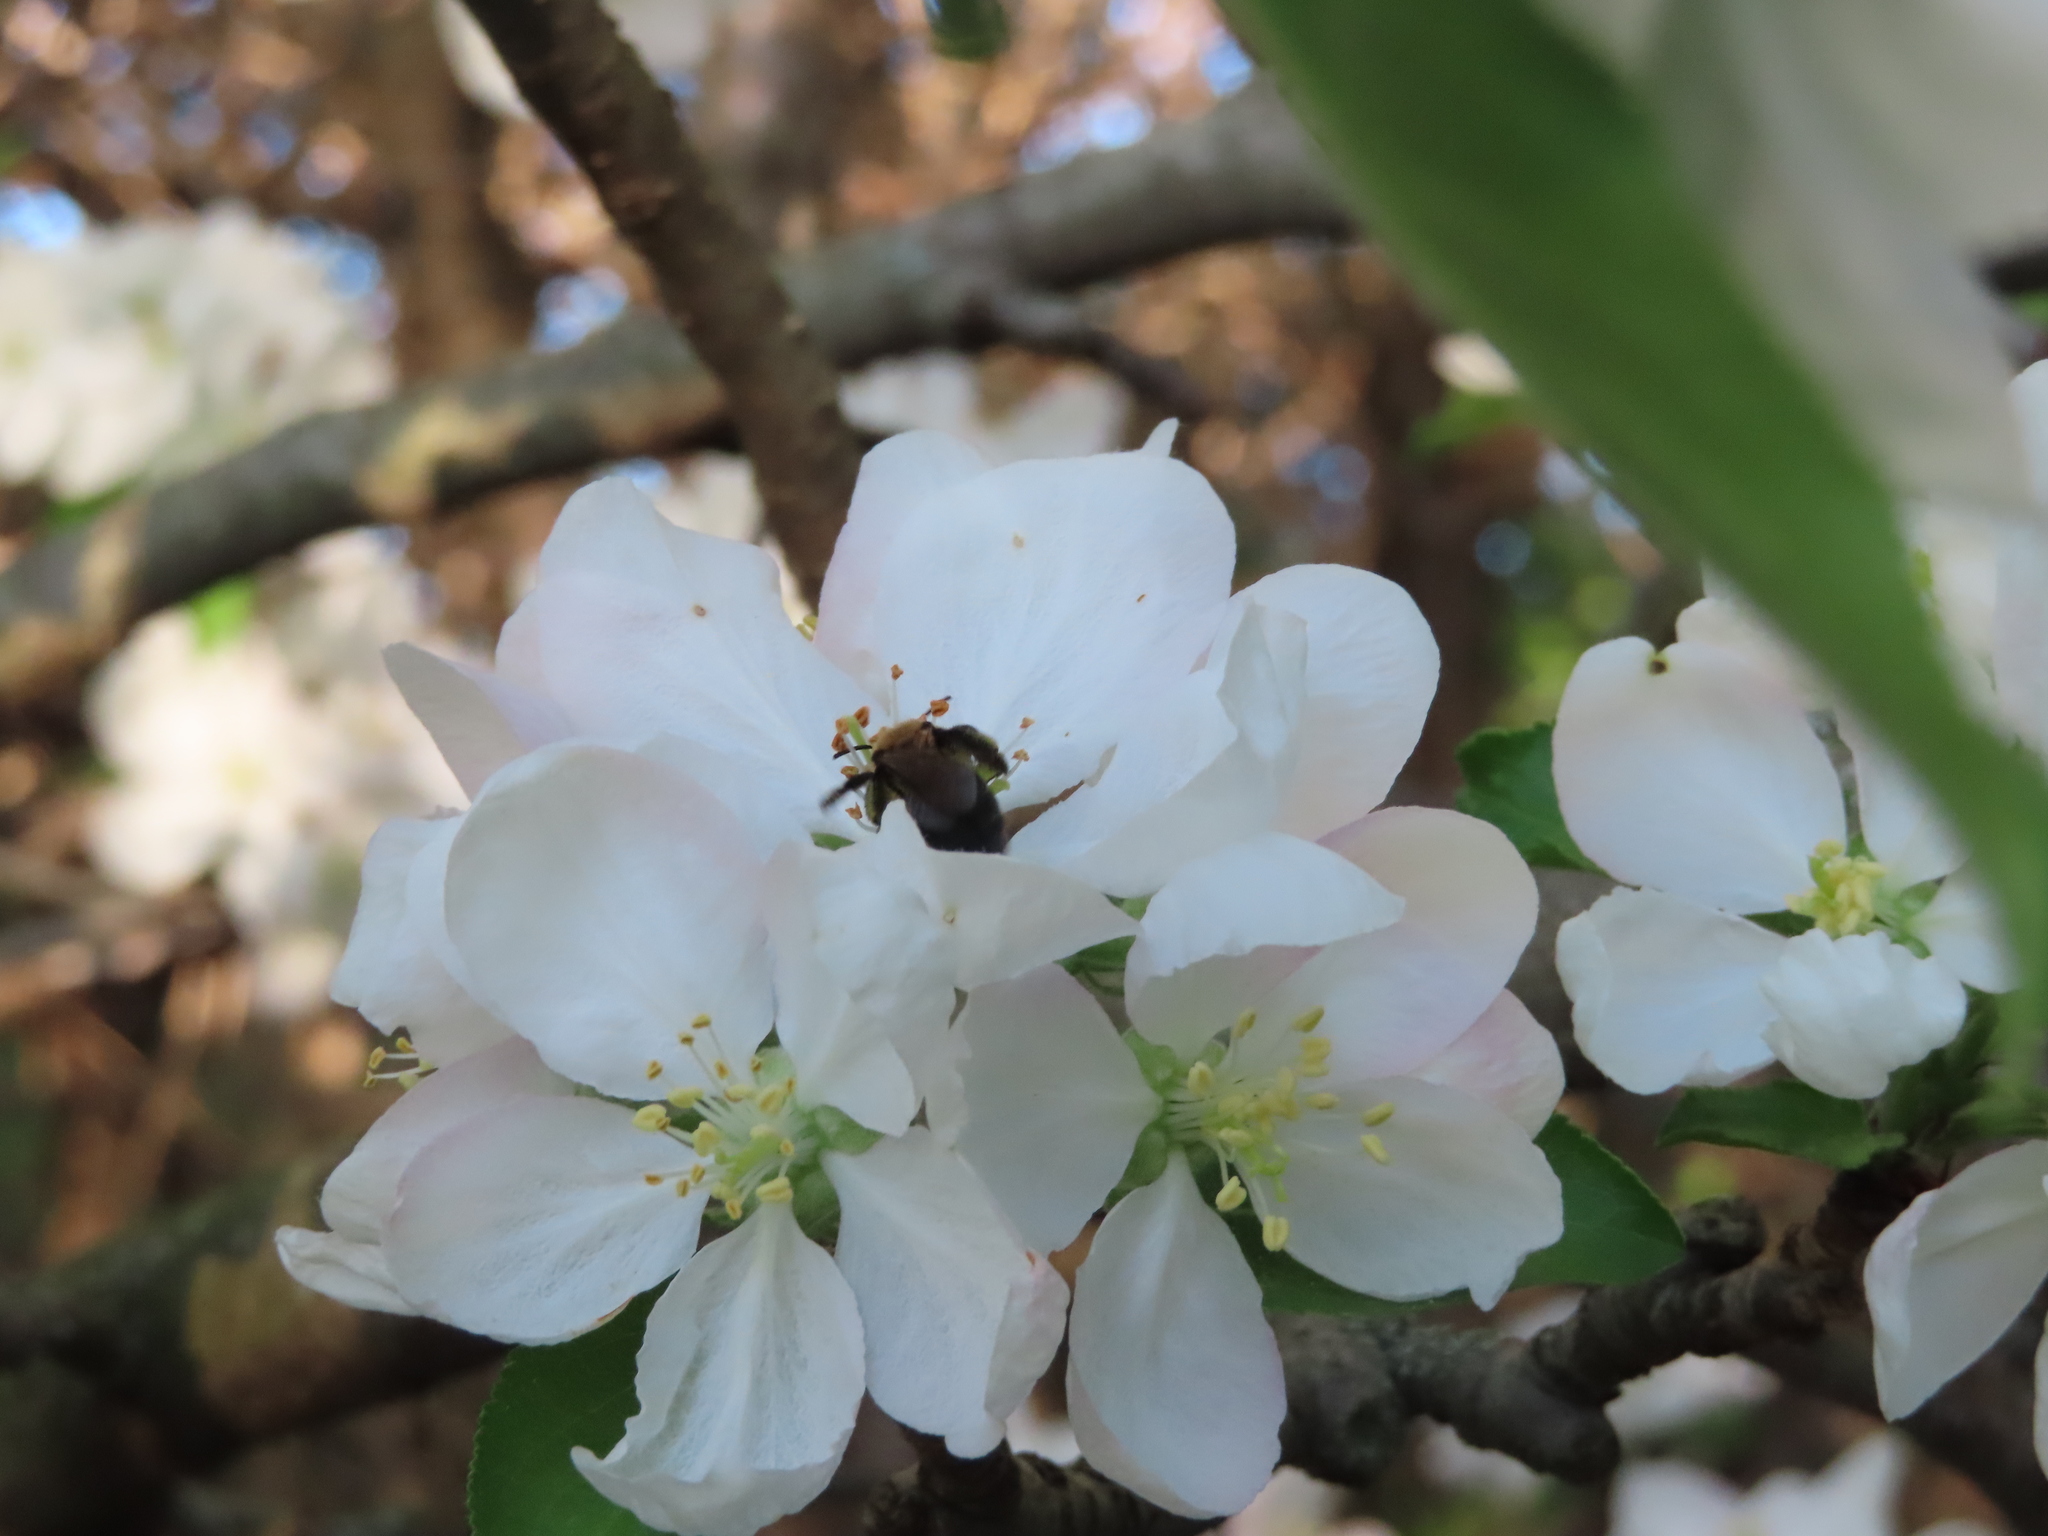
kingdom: Animalia
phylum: Arthropoda
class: Insecta
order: Hymenoptera
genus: Melandrena
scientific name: Melandrena
